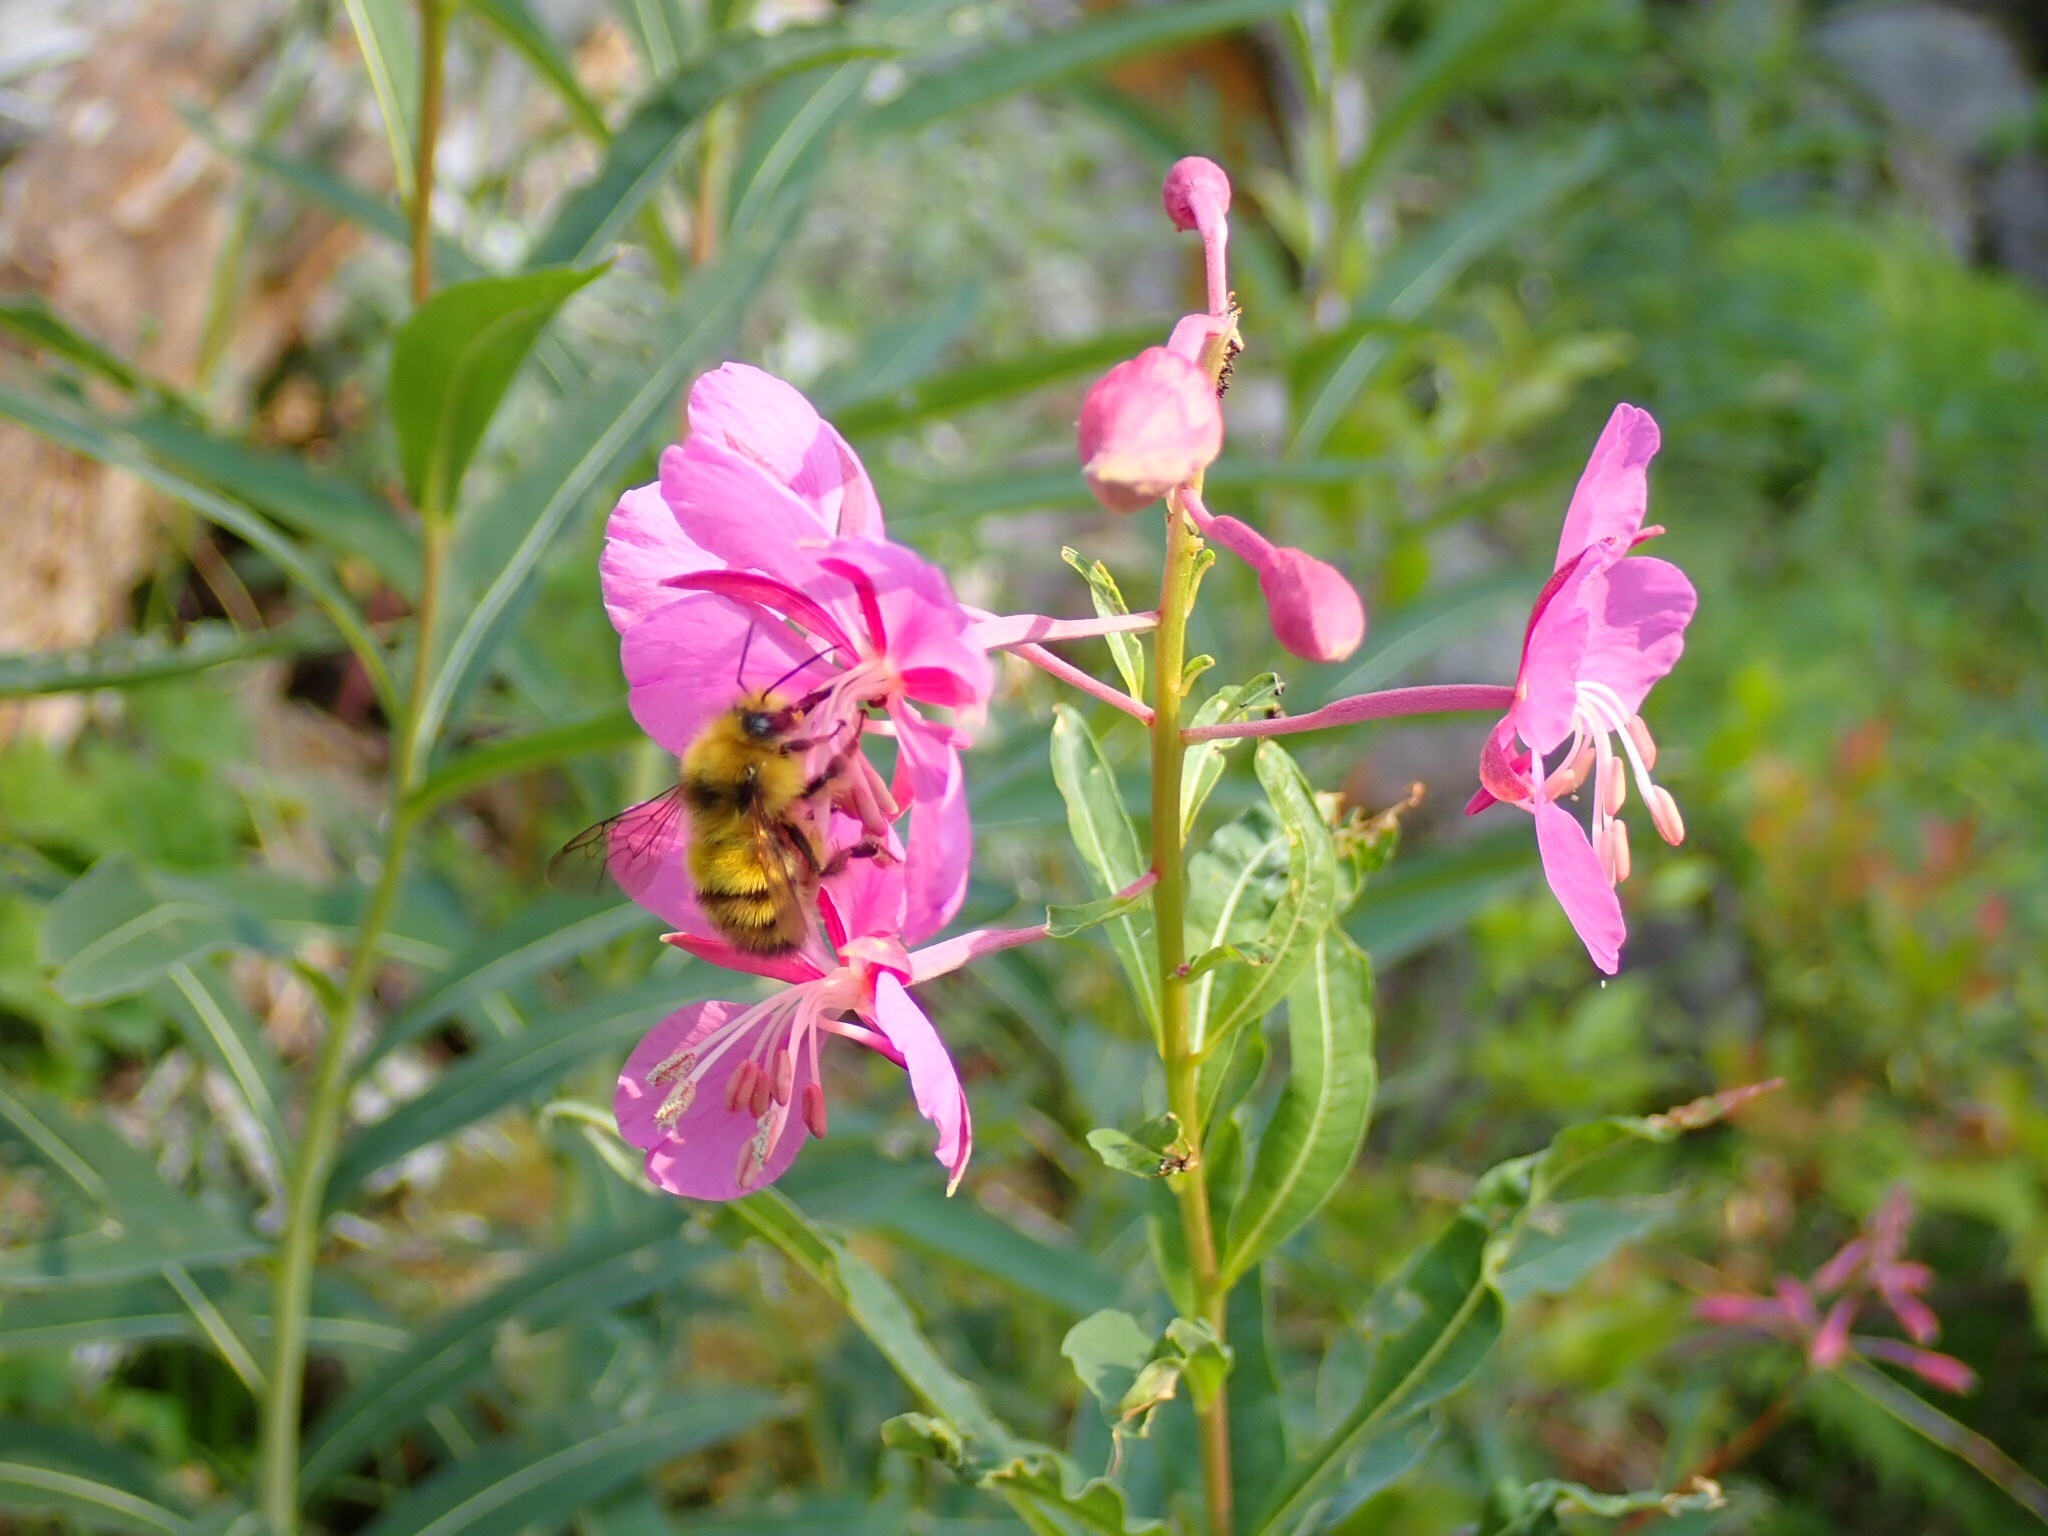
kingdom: Animalia
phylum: Arthropoda
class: Insecta
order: Hymenoptera
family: Apidae
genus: Pyrobombus
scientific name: Pyrobombus
